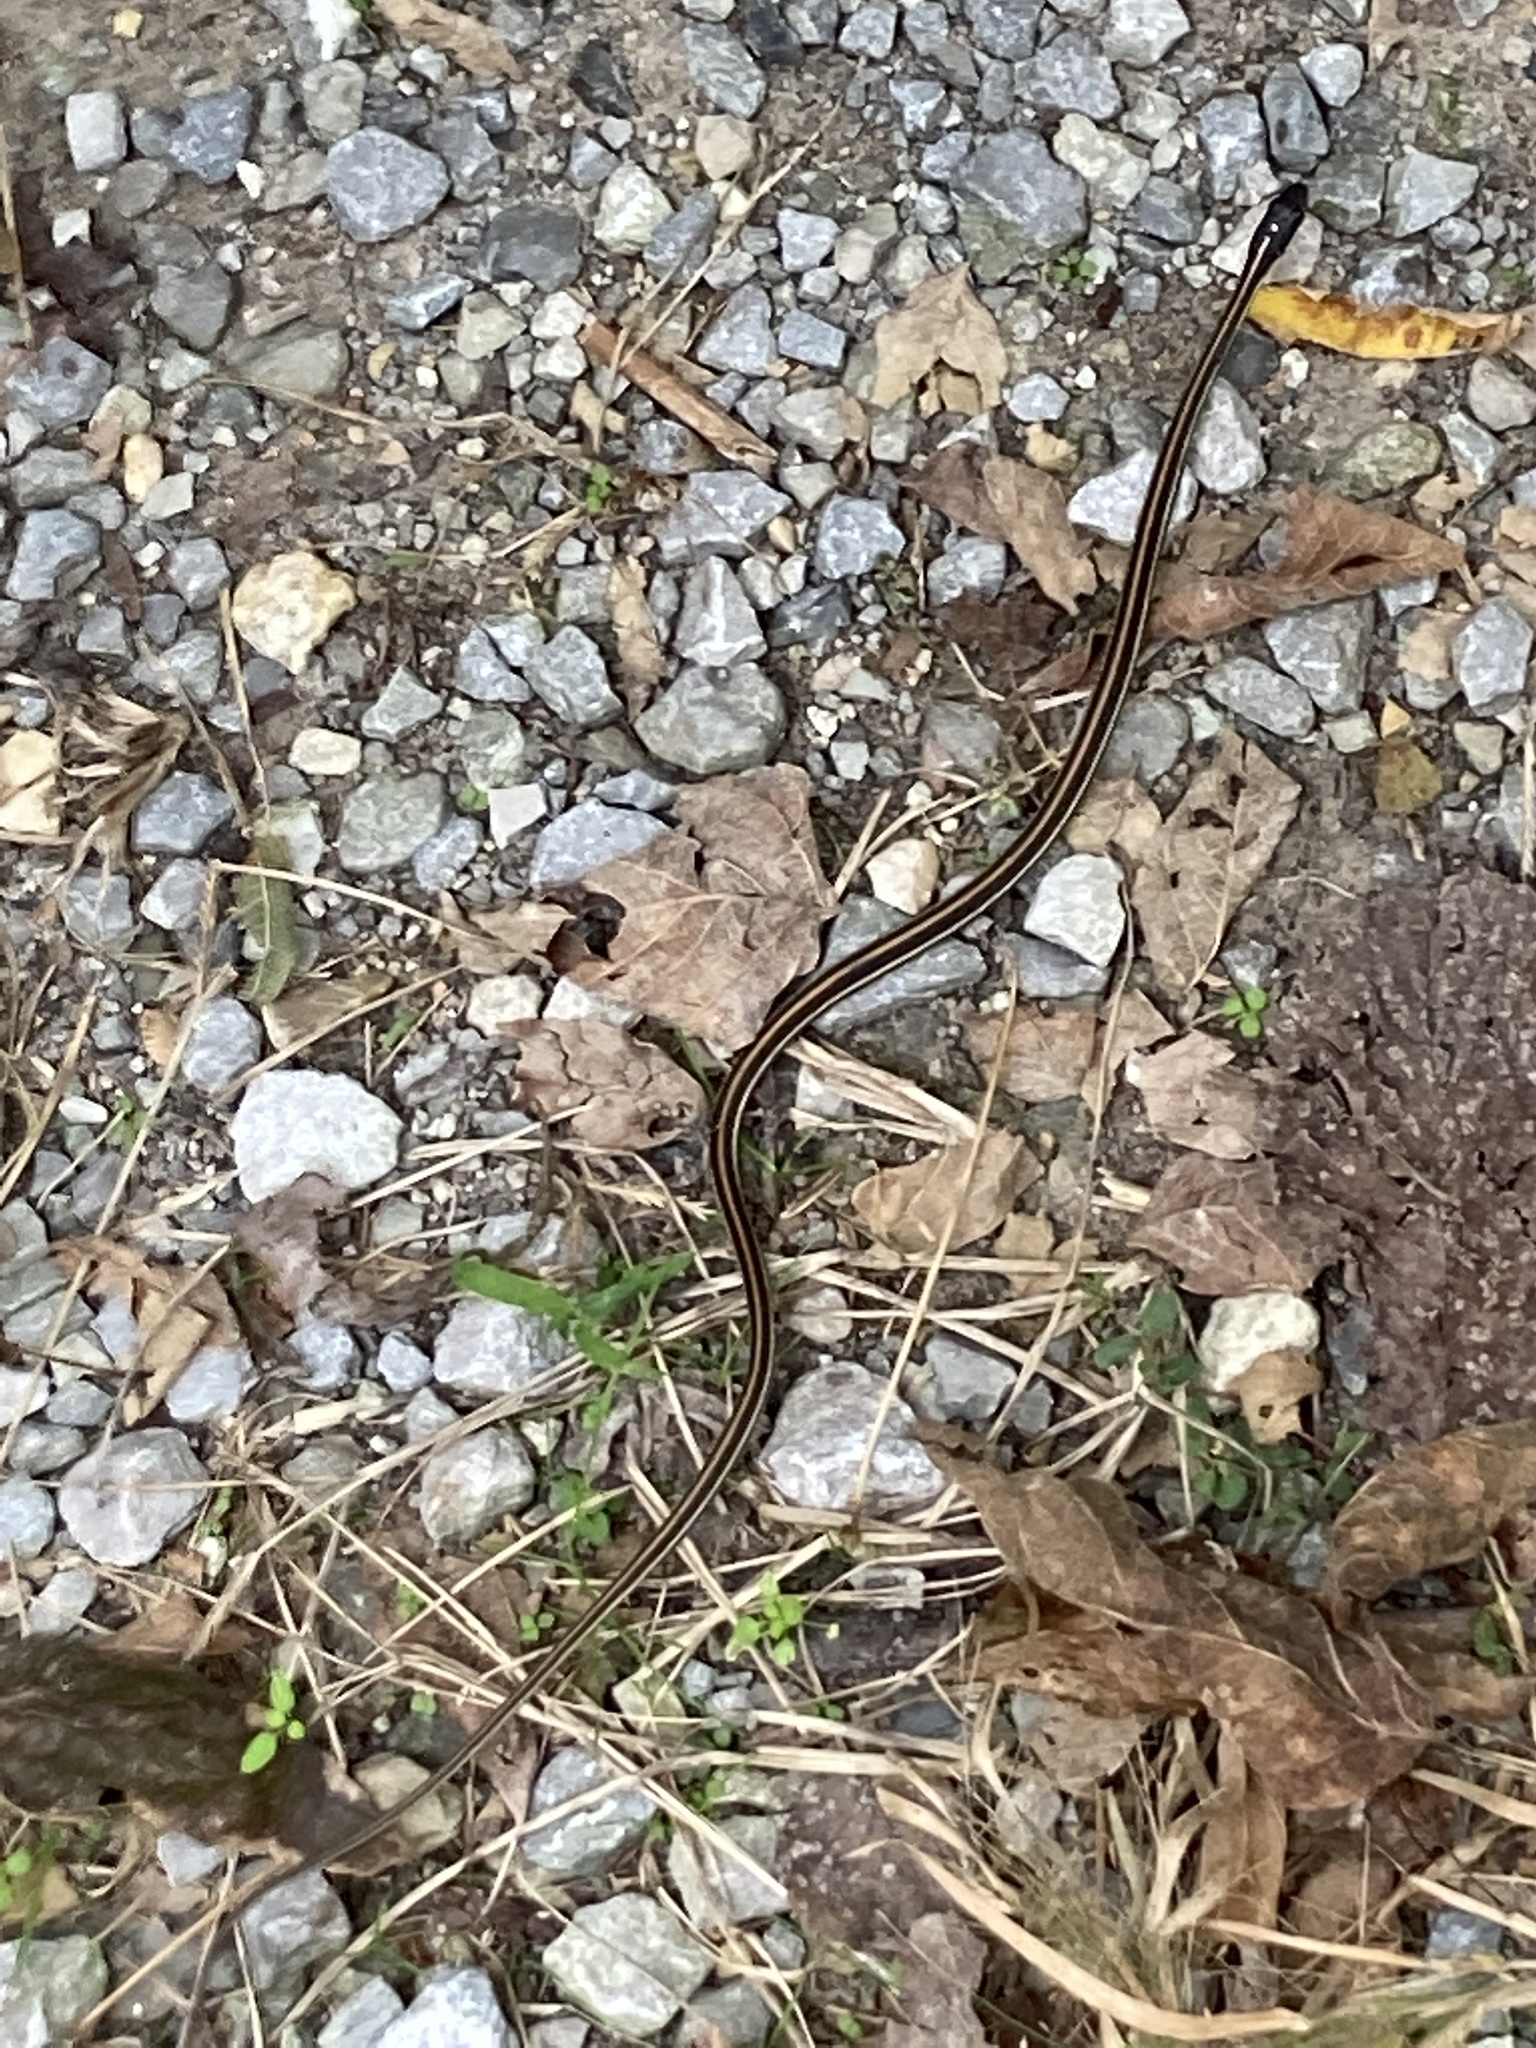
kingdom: Animalia
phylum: Chordata
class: Squamata
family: Colubridae
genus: Thamnophis
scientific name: Thamnophis proximus
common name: Western ribbon snake
